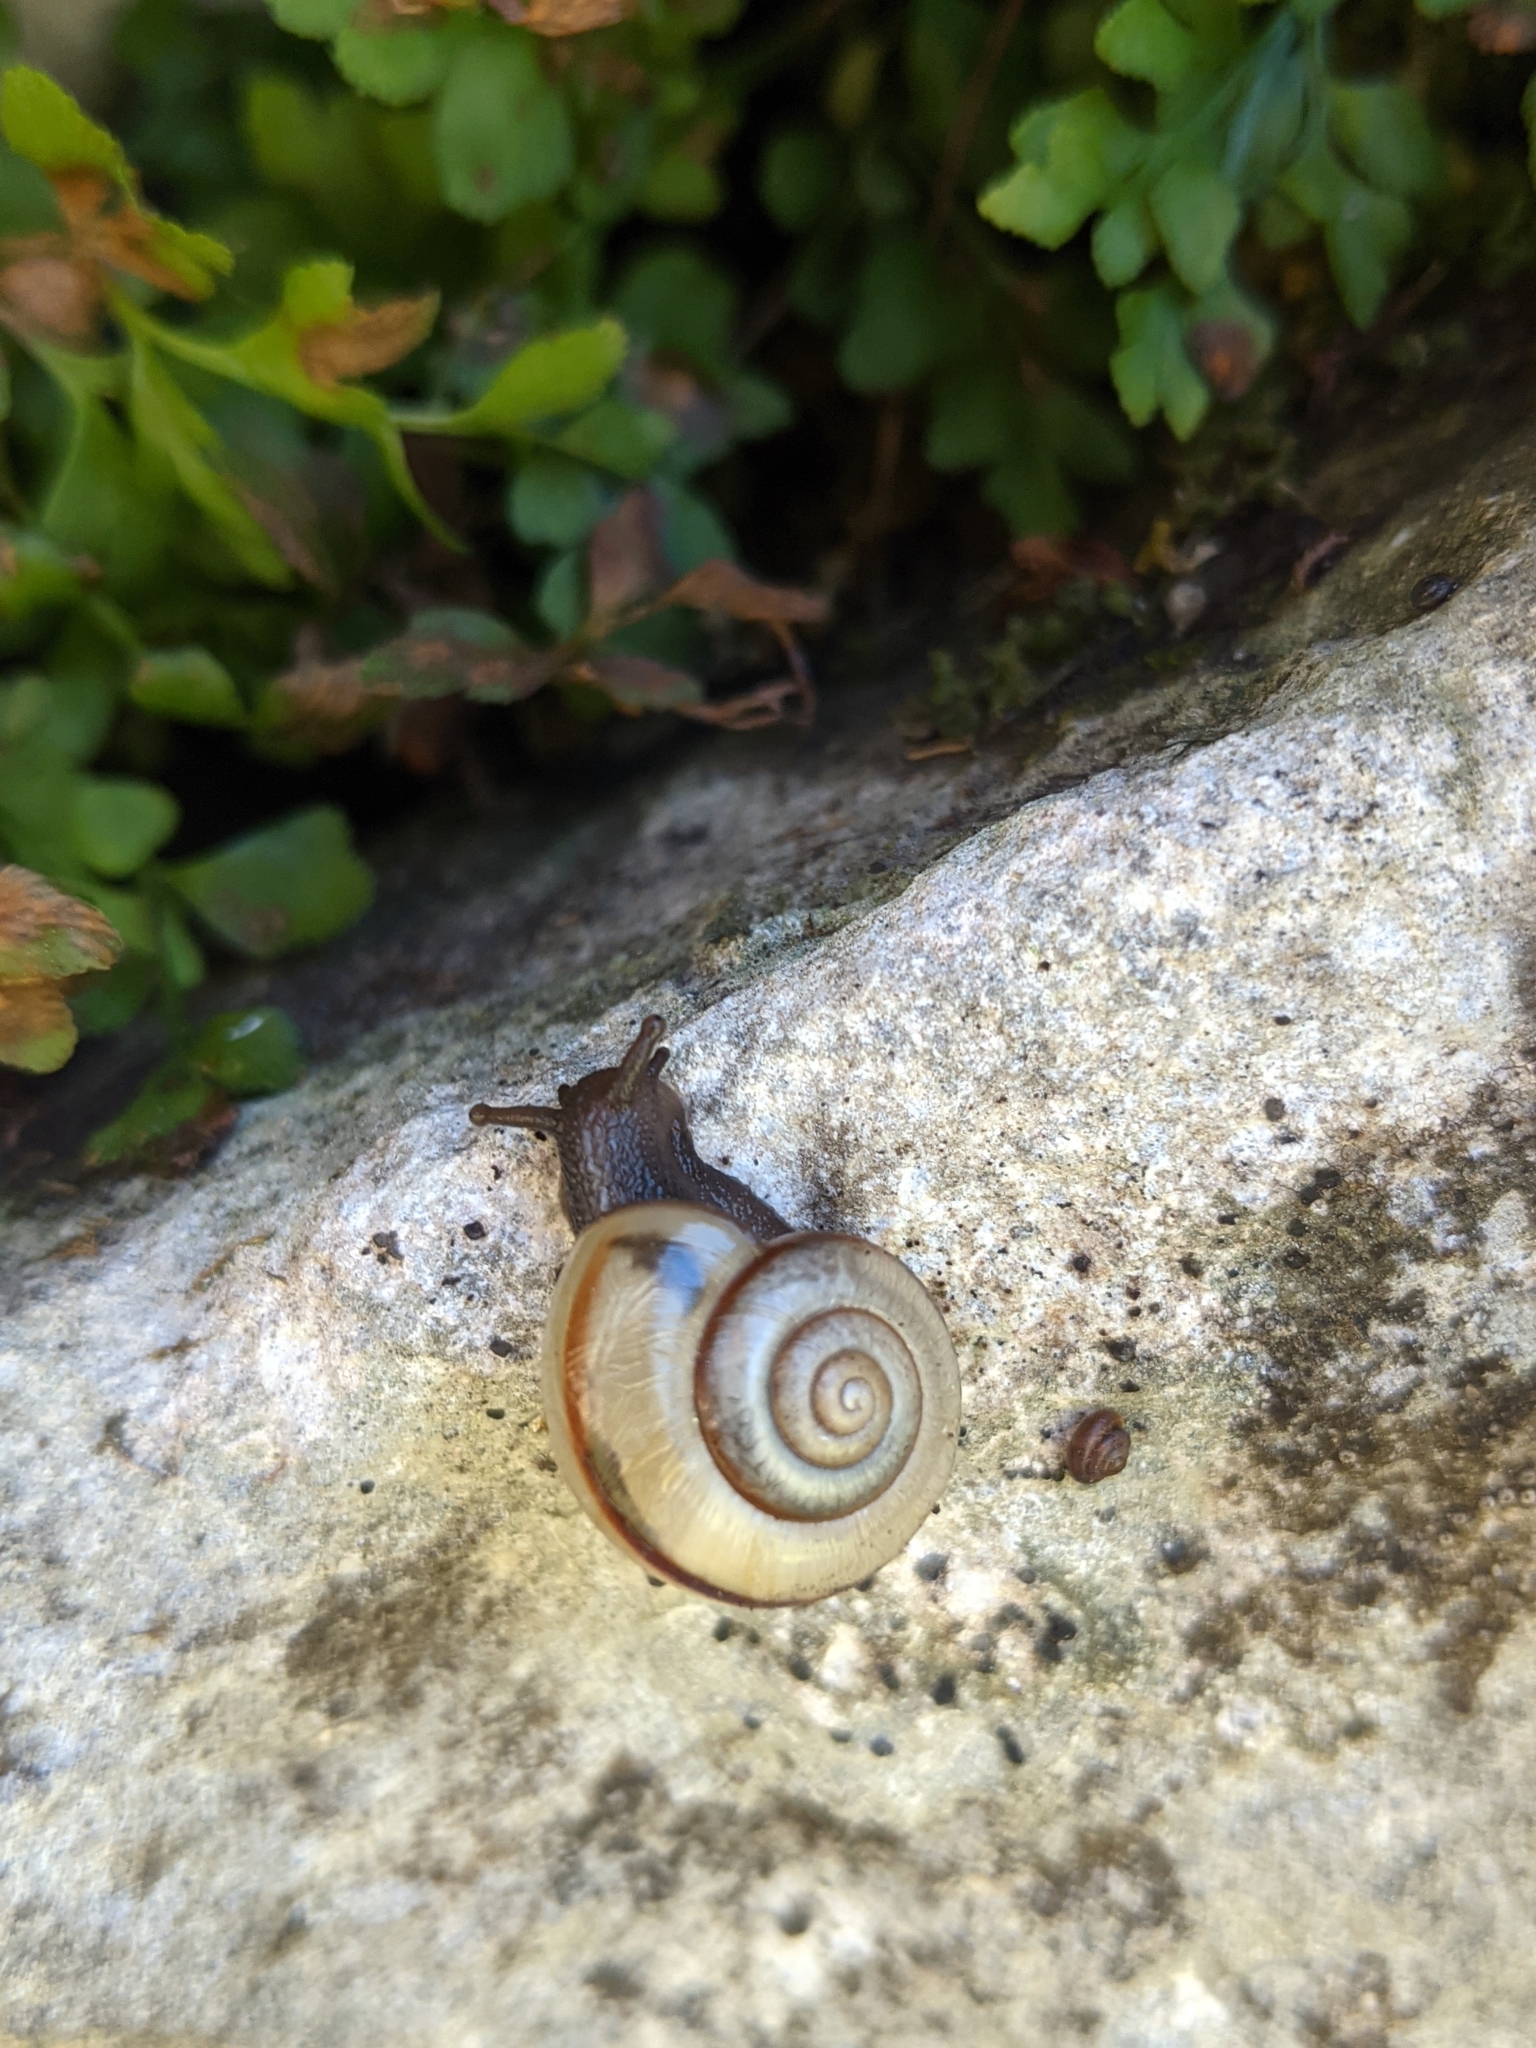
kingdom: Animalia
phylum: Mollusca
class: Gastropoda
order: Stylommatophora
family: Helicidae
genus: Faustina
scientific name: Faustina faustina
